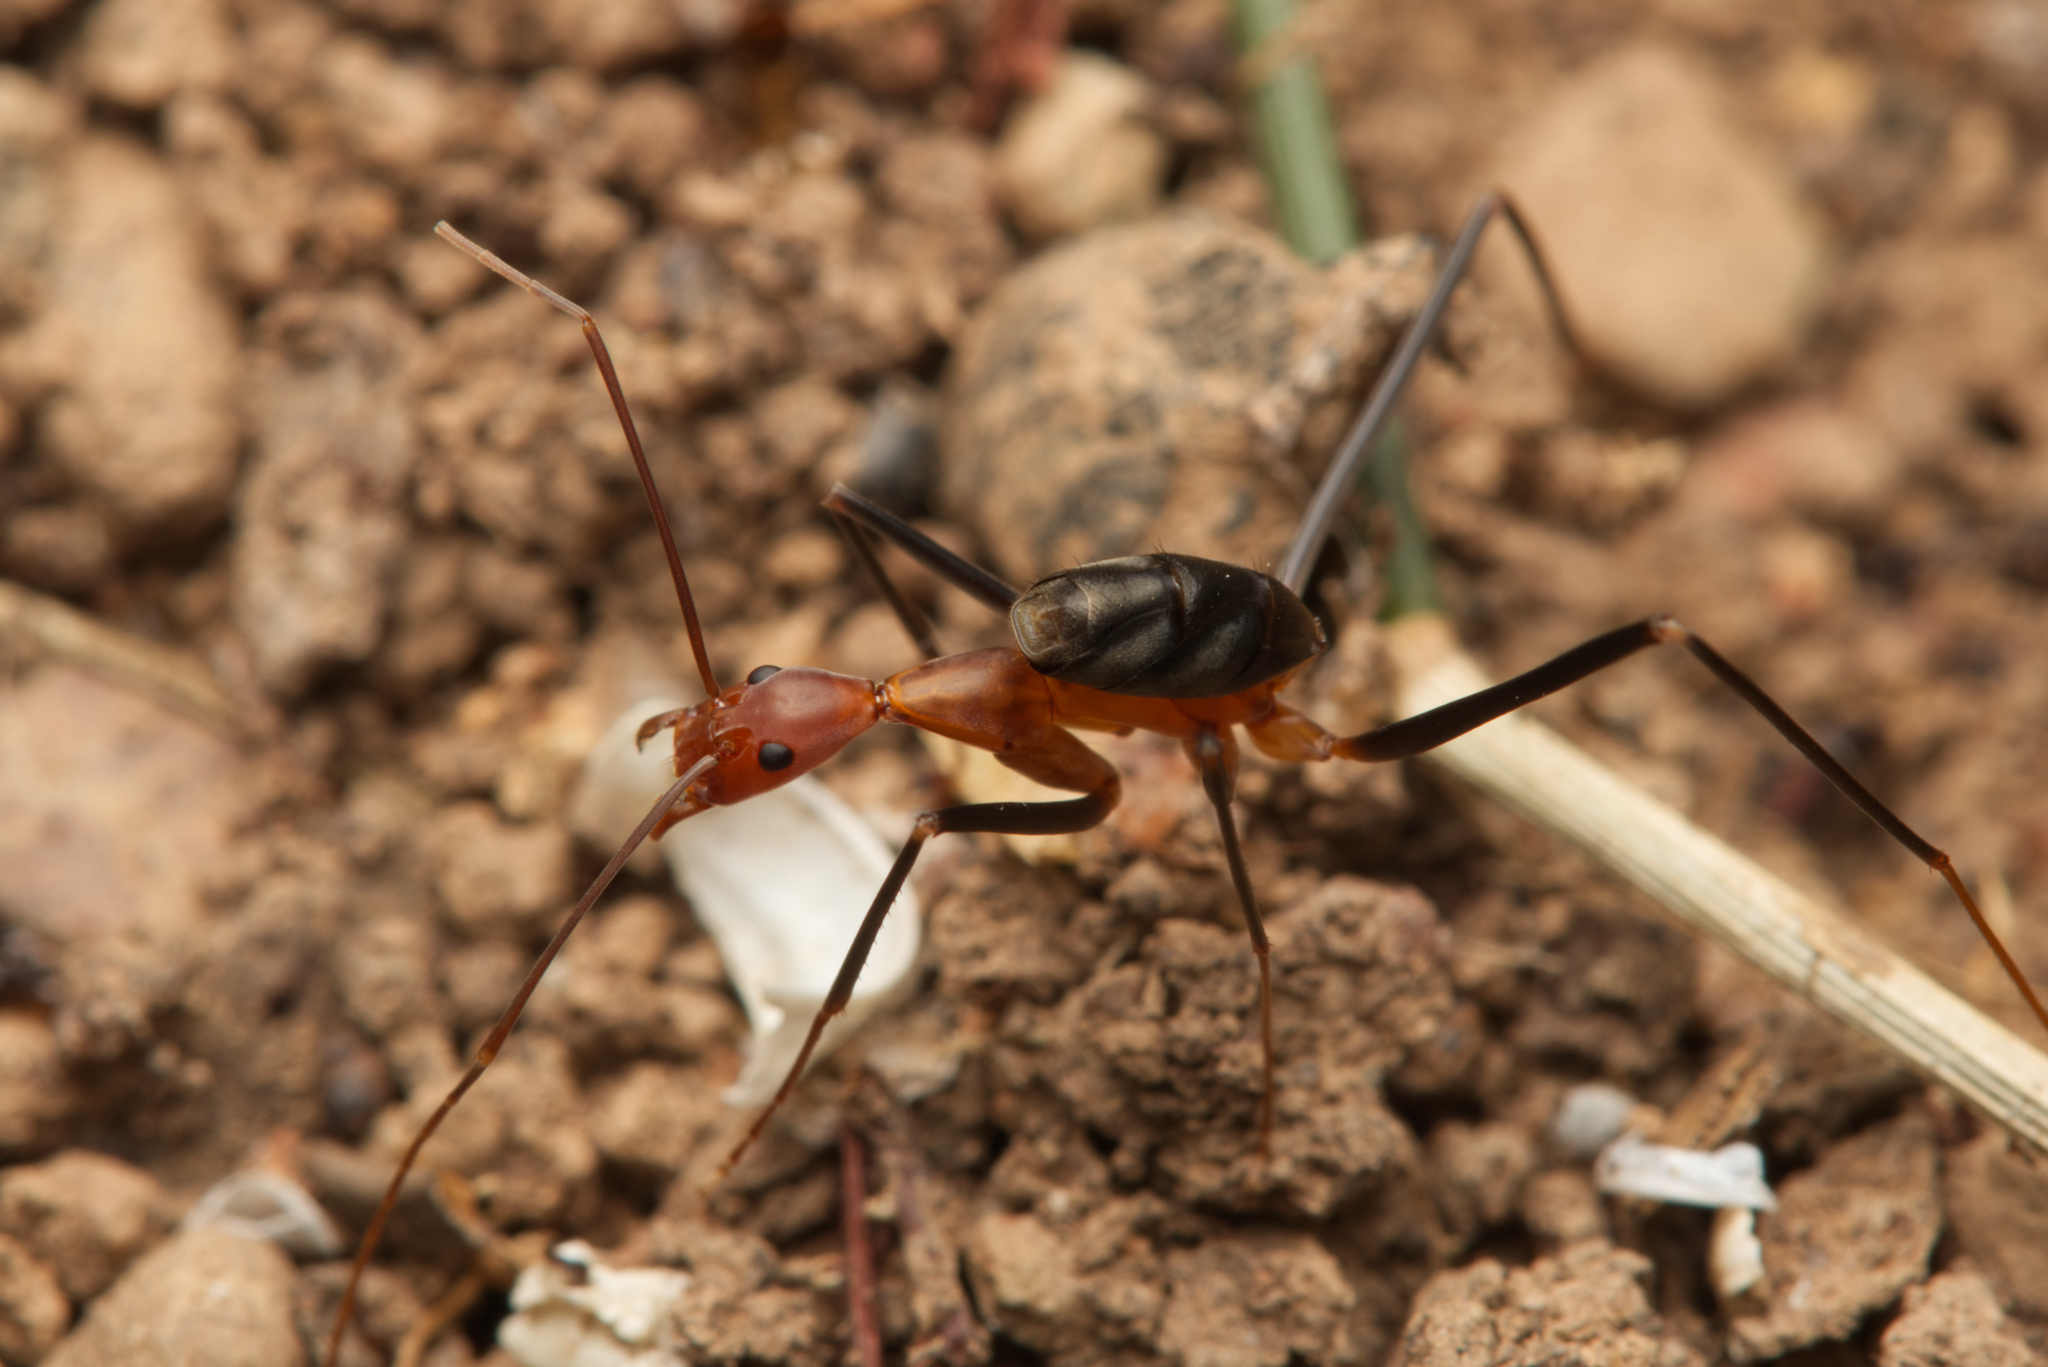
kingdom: Animalia
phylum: Arthropoda
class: Insecta
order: Hymenoptera
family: Formicidae
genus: Leptomyrmex
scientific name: Leptomyrmex varians
